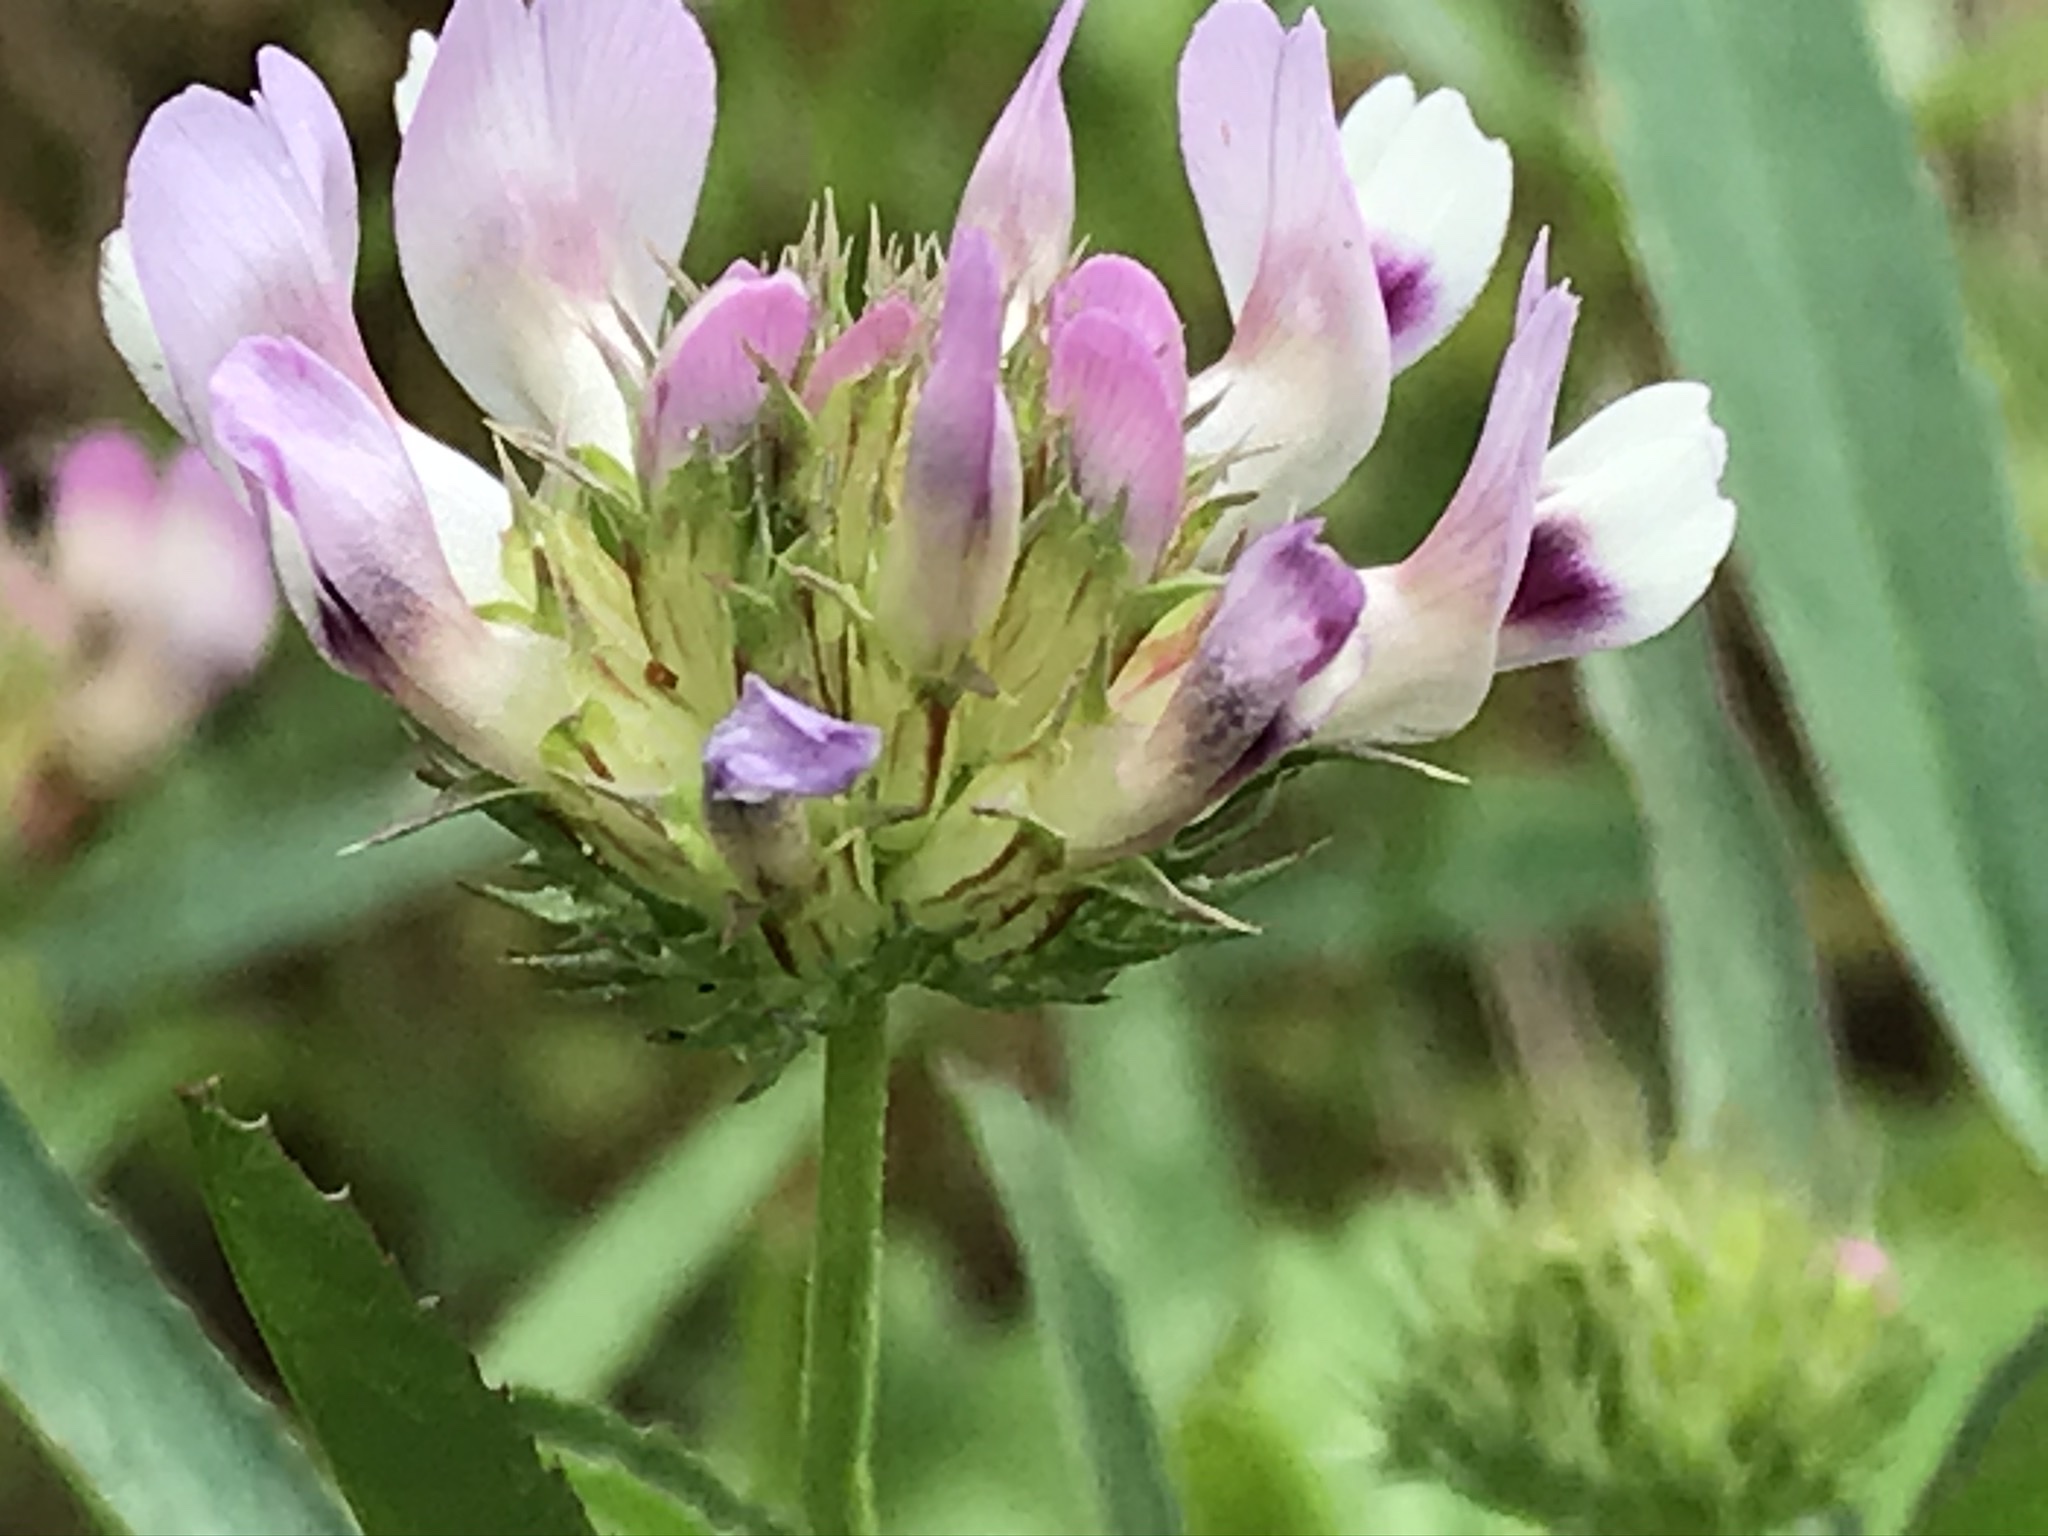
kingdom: Plantae
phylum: Tracheophyta
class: Magnoliopsida
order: Fabales
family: Fabaceae
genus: Trifolium
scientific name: Trifolium willdenovii
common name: Tomcat clover
